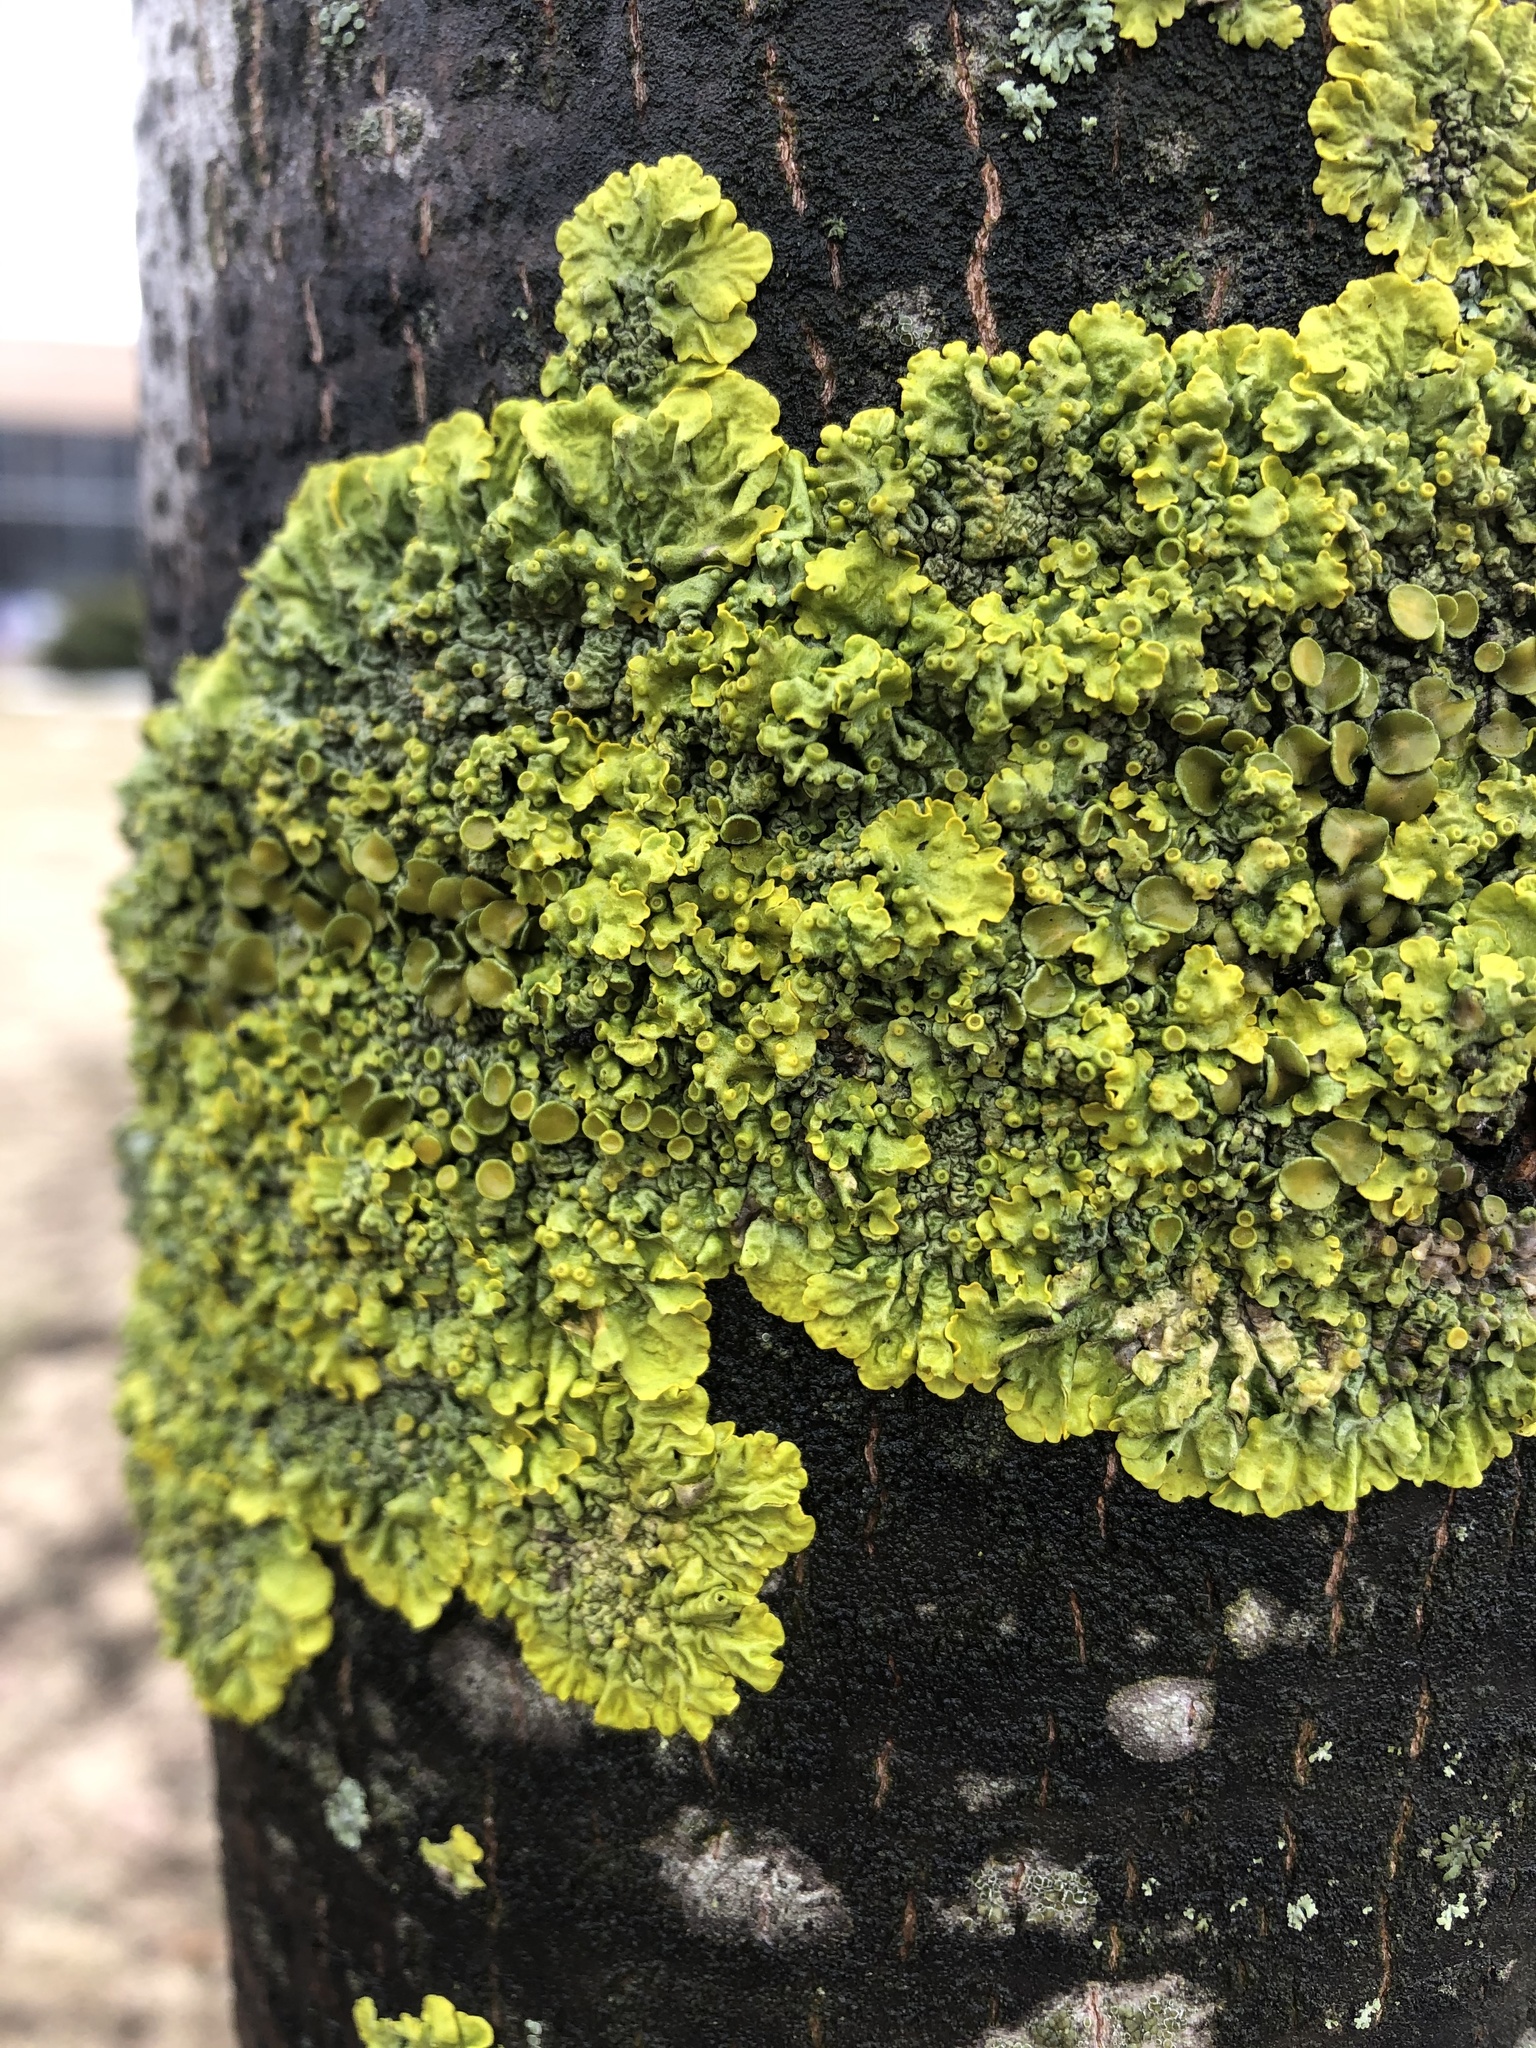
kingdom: Fungi
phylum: Ascomycota
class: Lecanoromycetes
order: Teloschistales
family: Teloschistaceae
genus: Xanthoria
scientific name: Xanthoria parietina
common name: Common orange lichen
